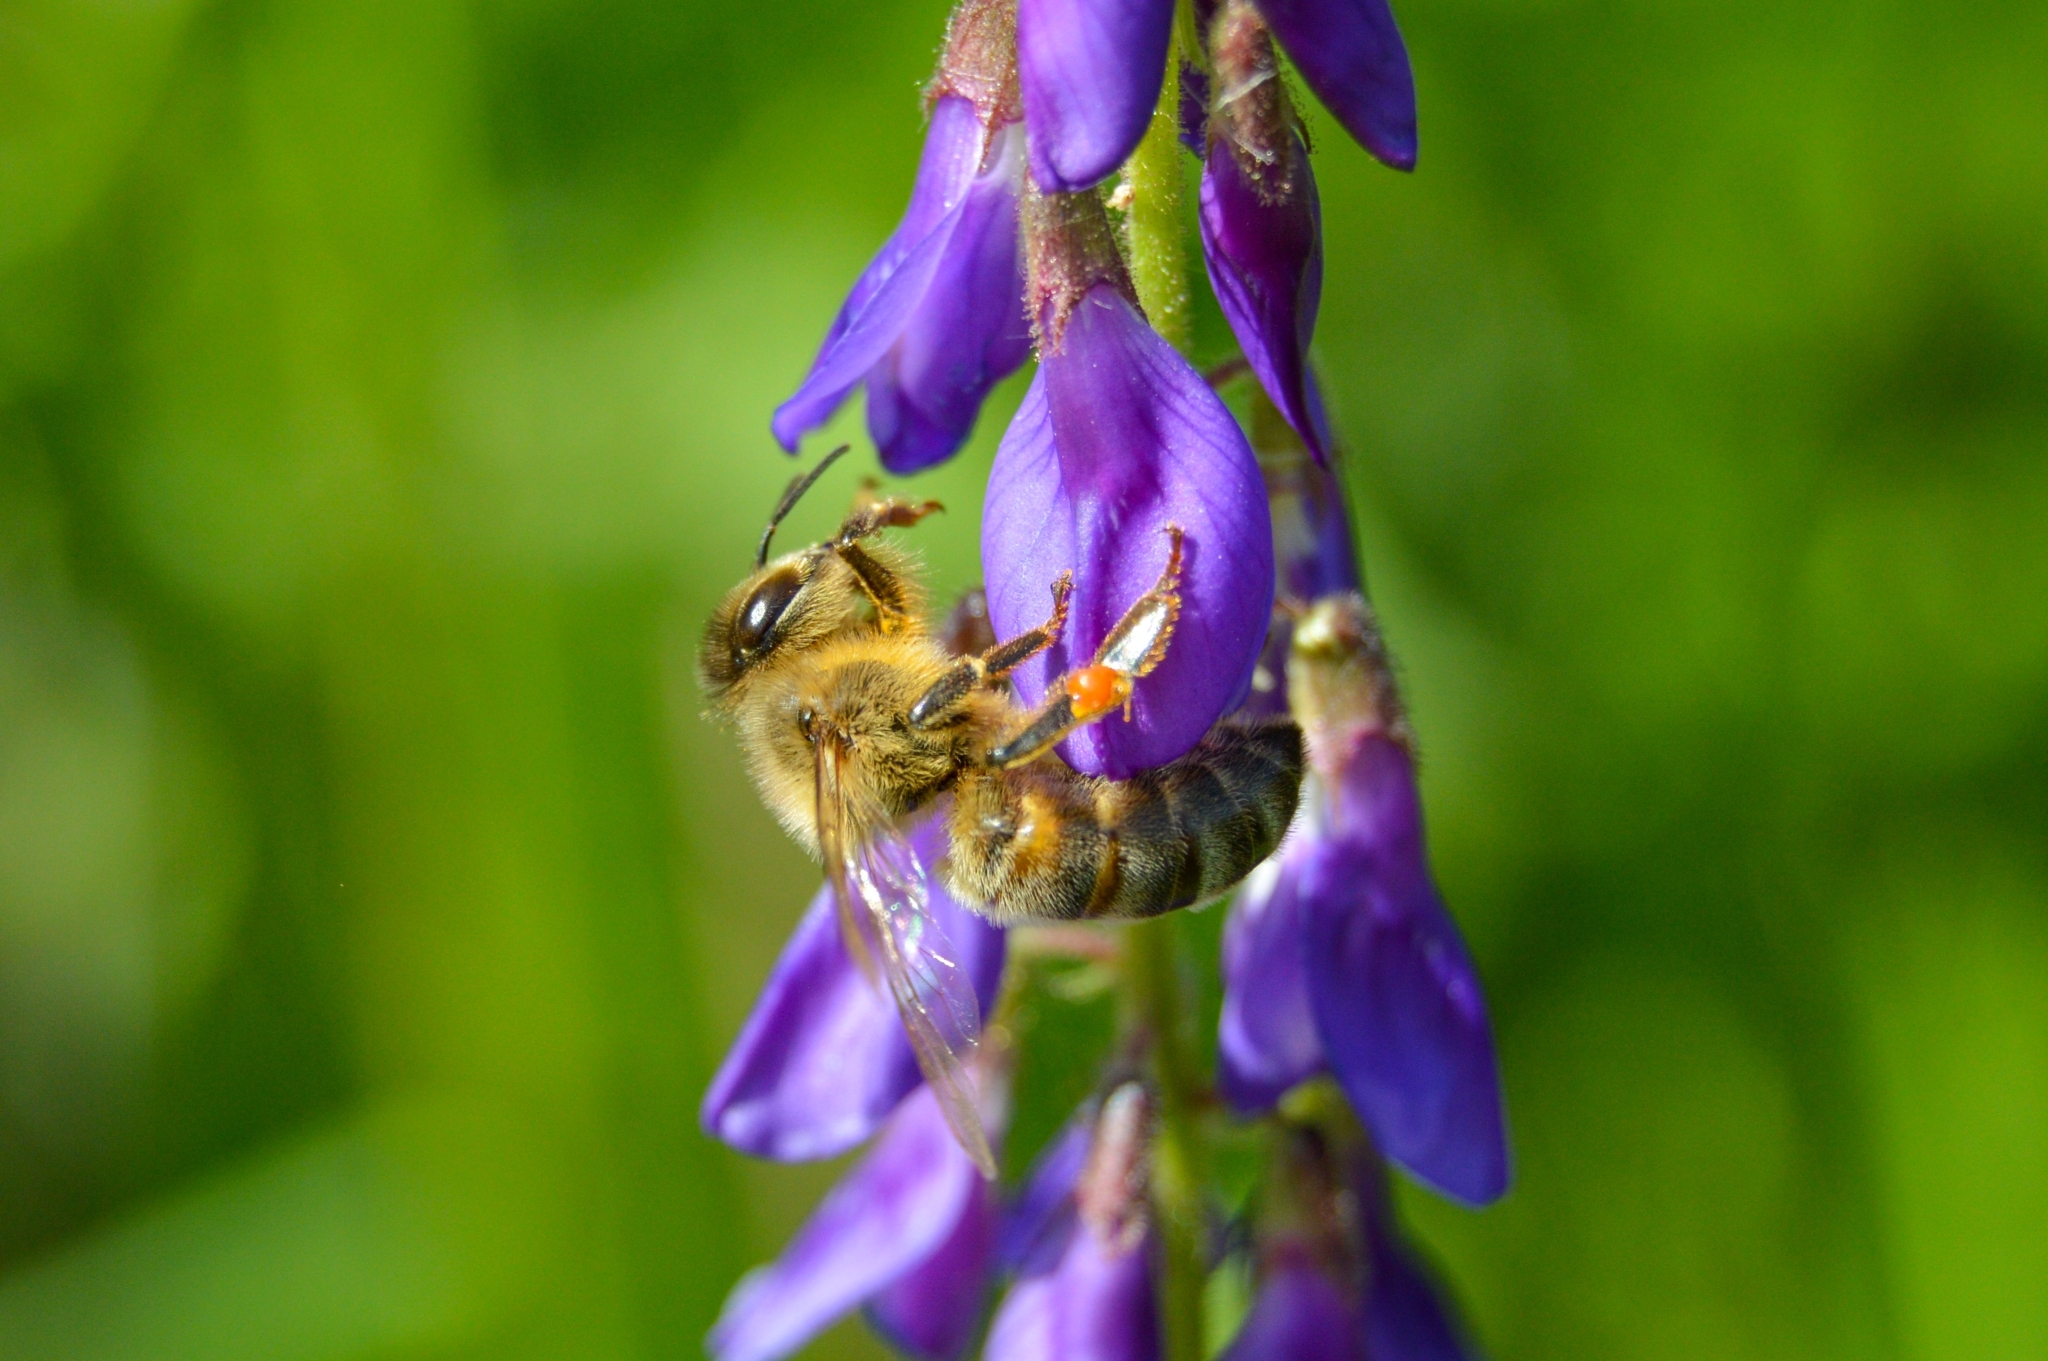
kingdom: Animalia
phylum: Arthropoda
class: Insecta
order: Hymenoptera
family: Apidae
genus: Apis
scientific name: Apis mellifera
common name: Honey bee
